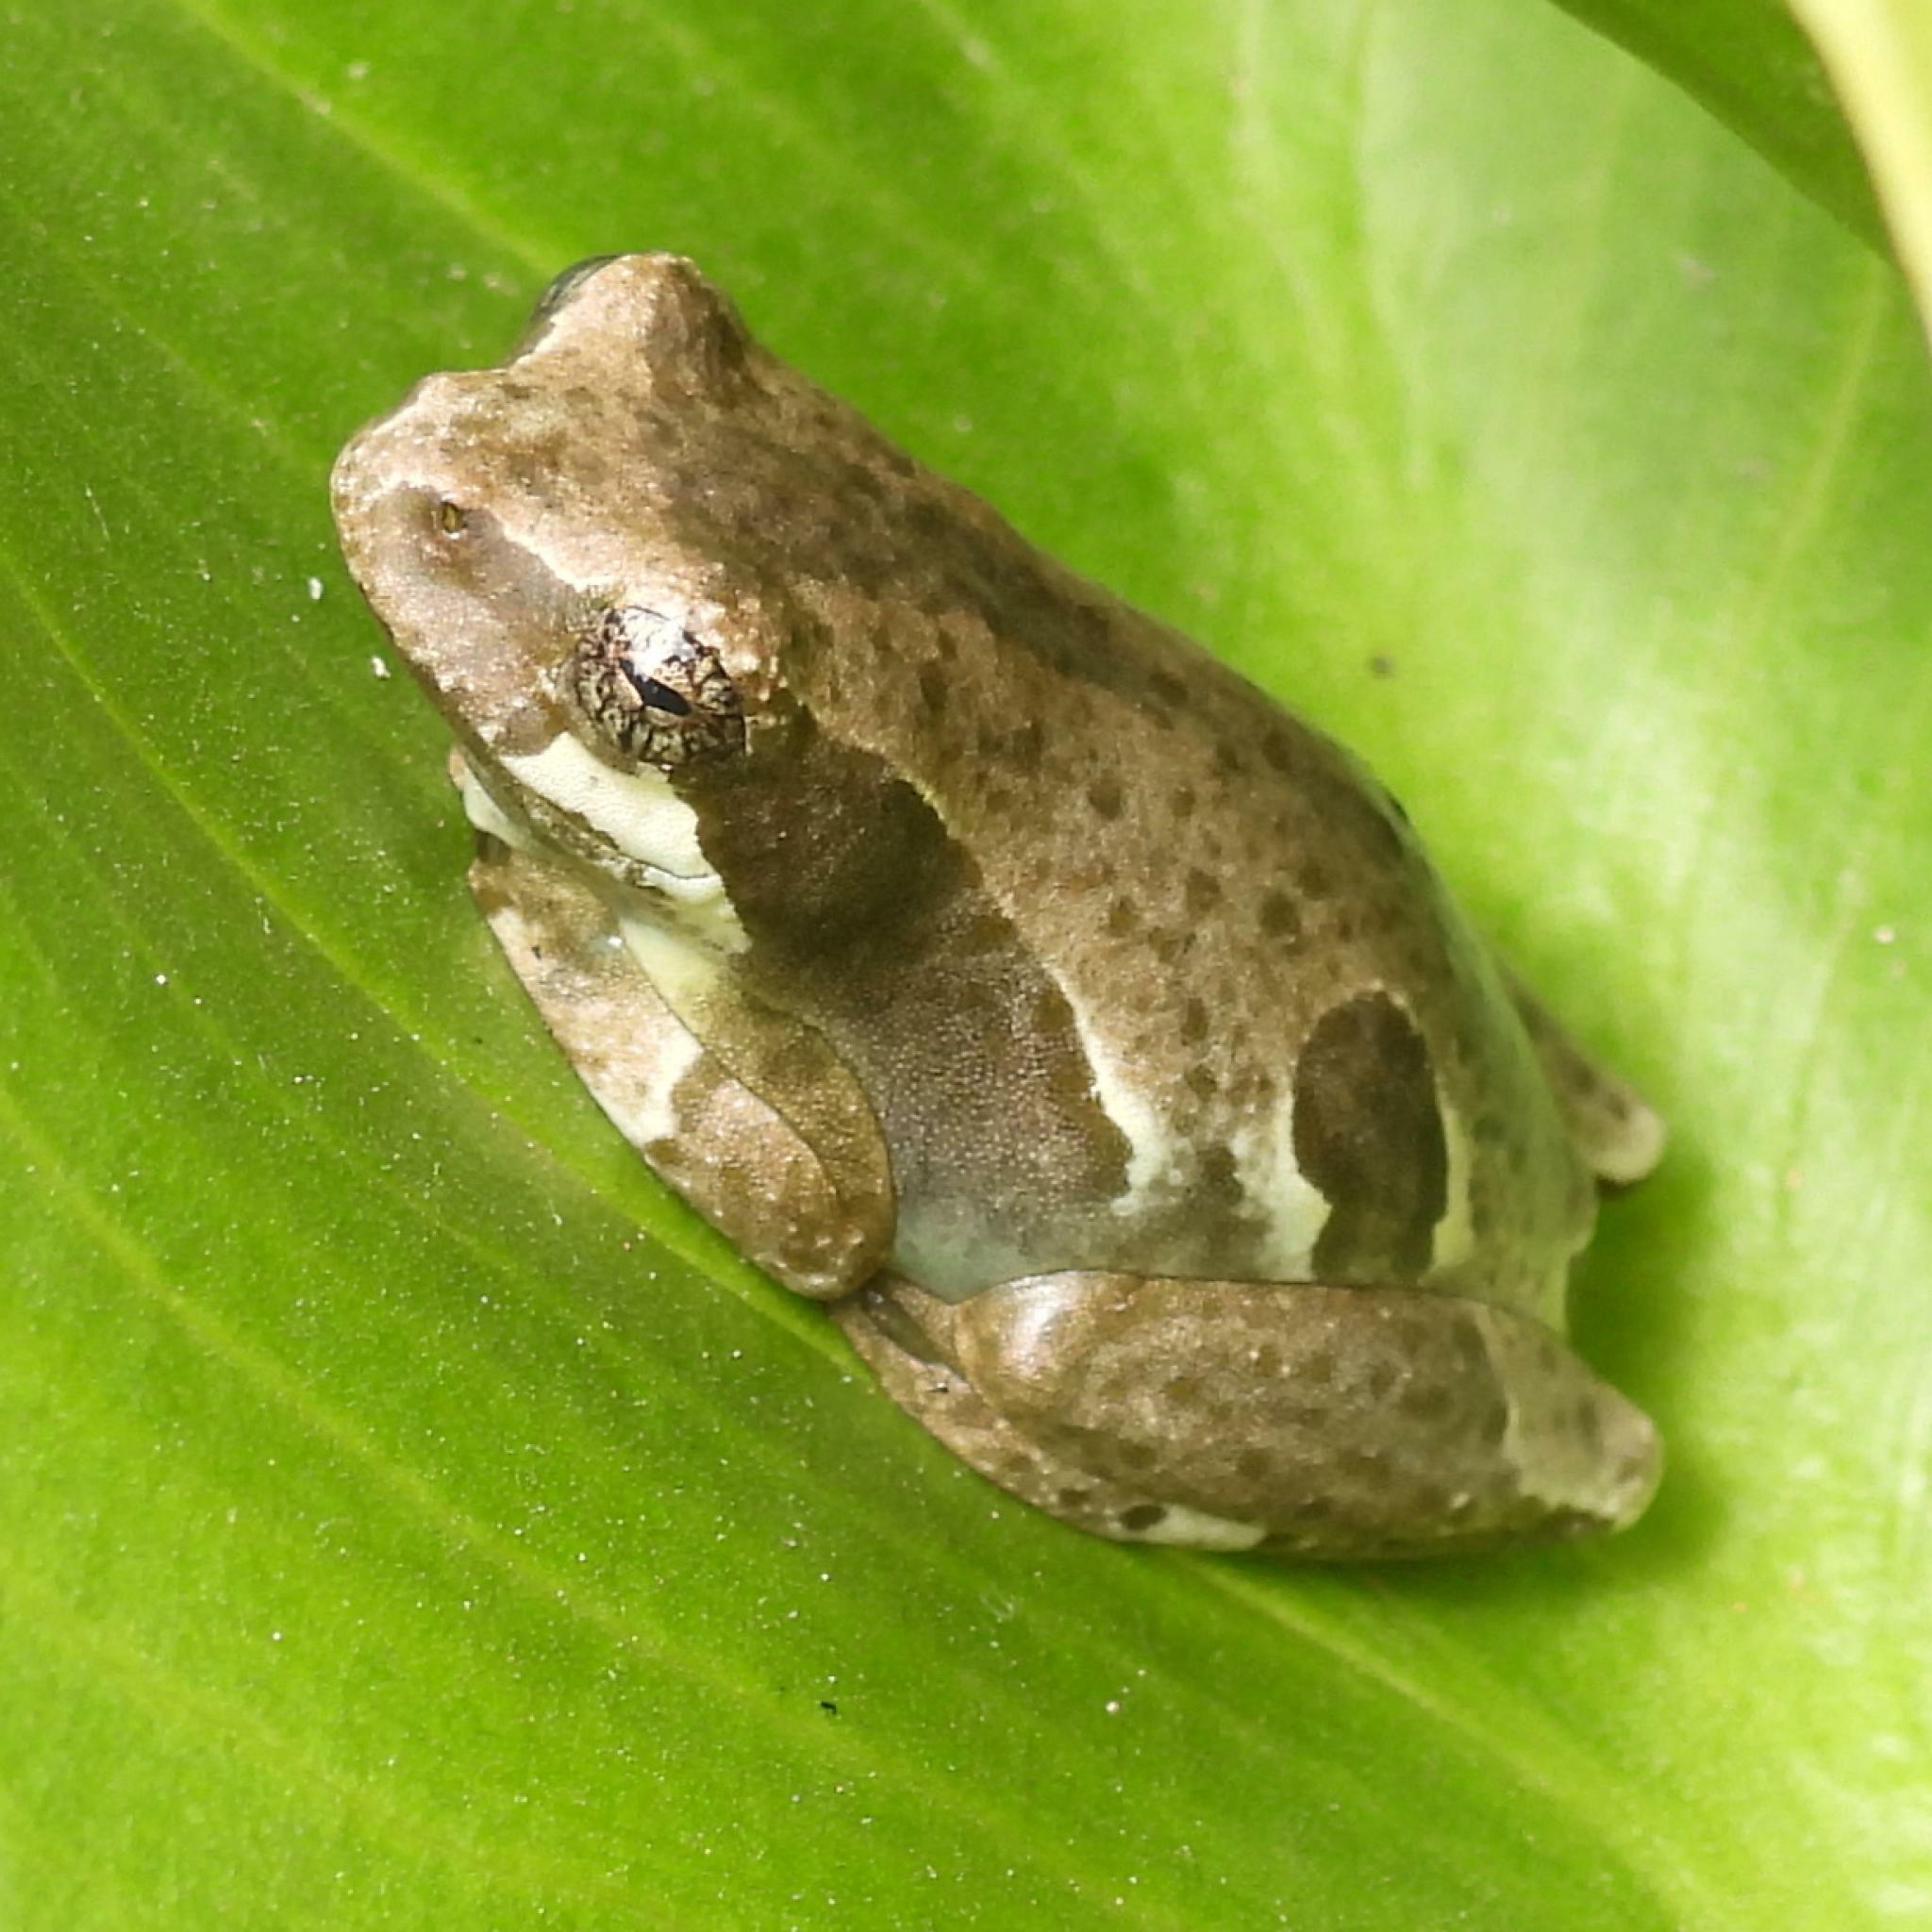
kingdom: Animalia
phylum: Chordata
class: Amphibia
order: Anura
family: Hyperoliidae
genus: Hyperolius
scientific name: Hyperolius marmoratus
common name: Painted reed frog
